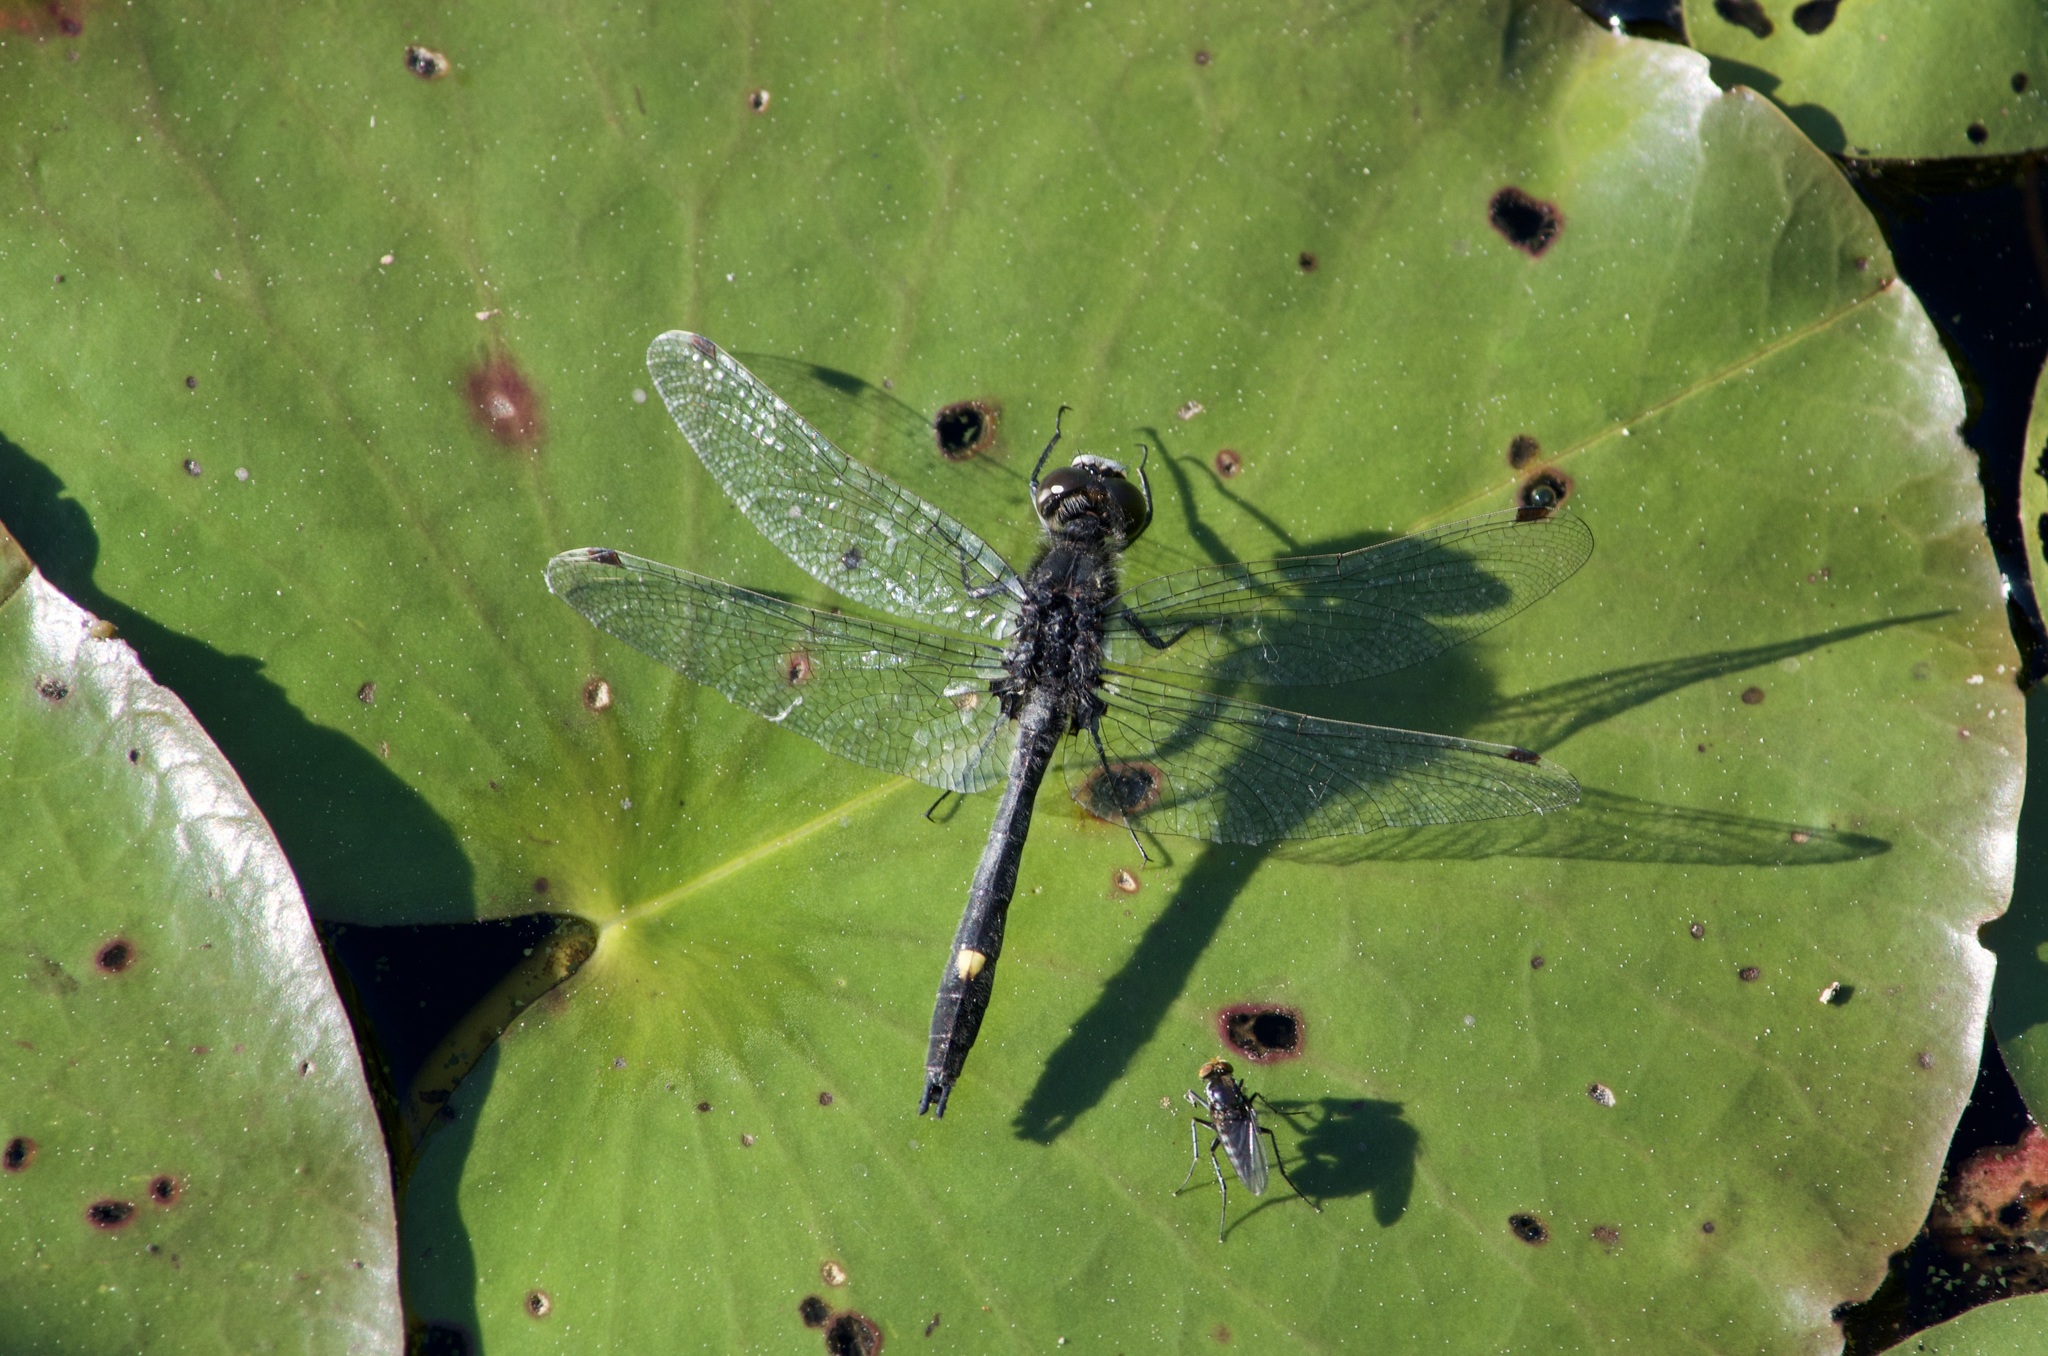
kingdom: Animalia
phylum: Arthropoda
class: Insecta
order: Odonata
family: Libellulidae
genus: Leucorrhinia
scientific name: Leucorrhinia intacta
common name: Dot-tailed whiteface
